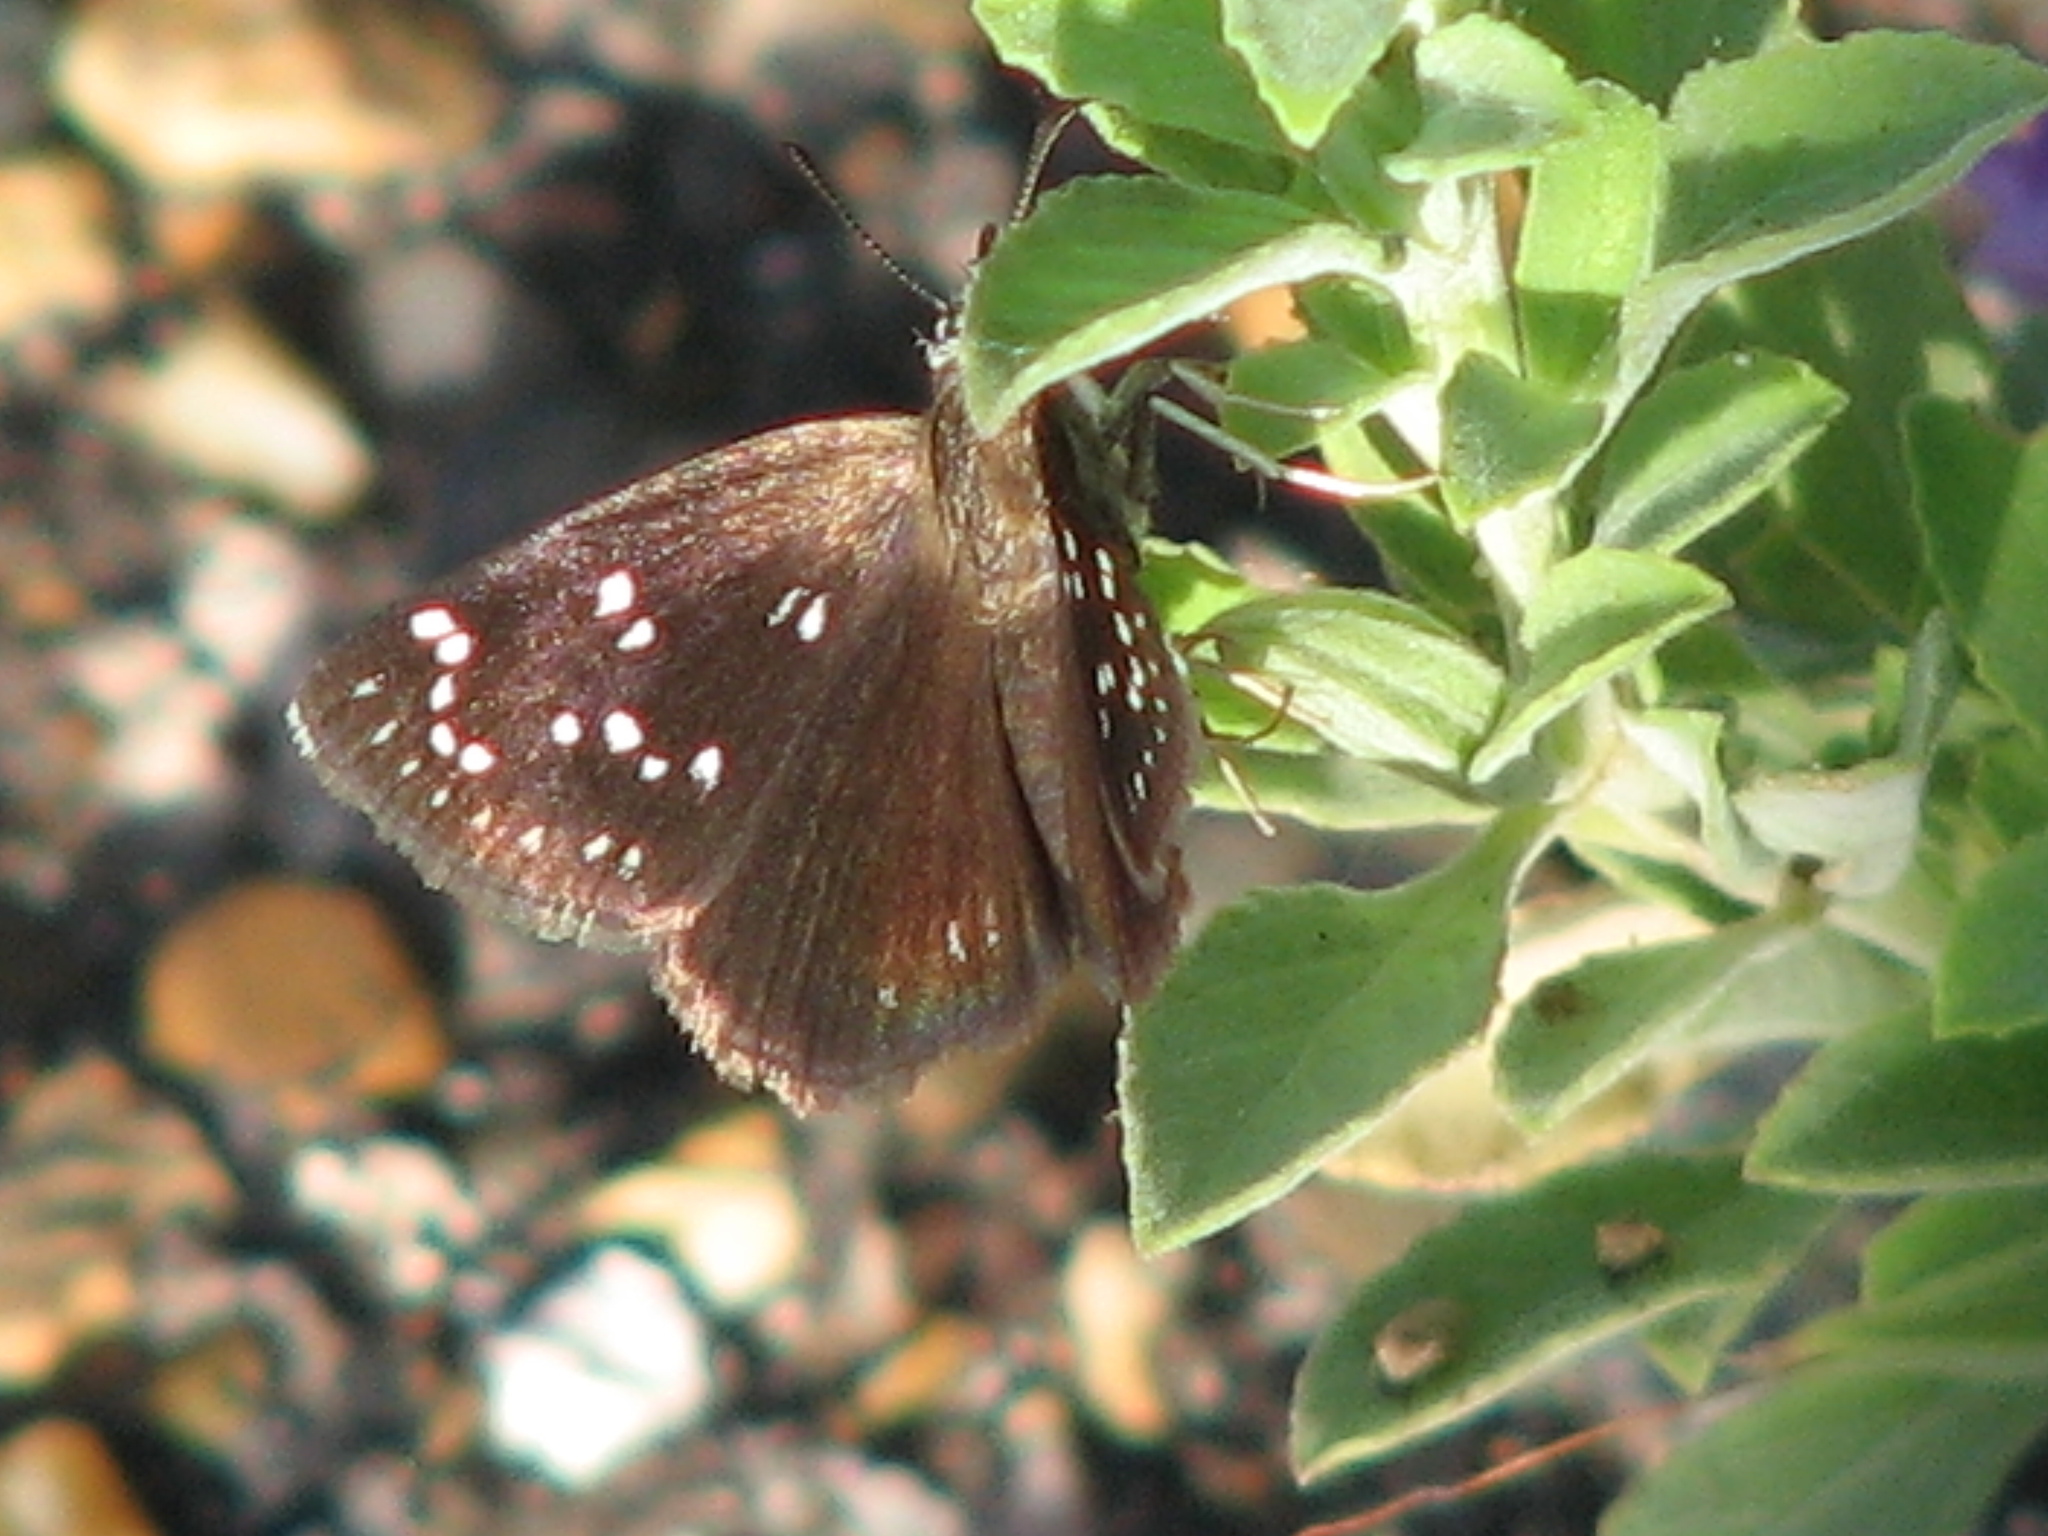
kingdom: Animalia
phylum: Arthropoda
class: Insecta
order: Lepidoptera
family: Hesperiidae
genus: Pholisora
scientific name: Pholisora catullus
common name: Common sootywing
